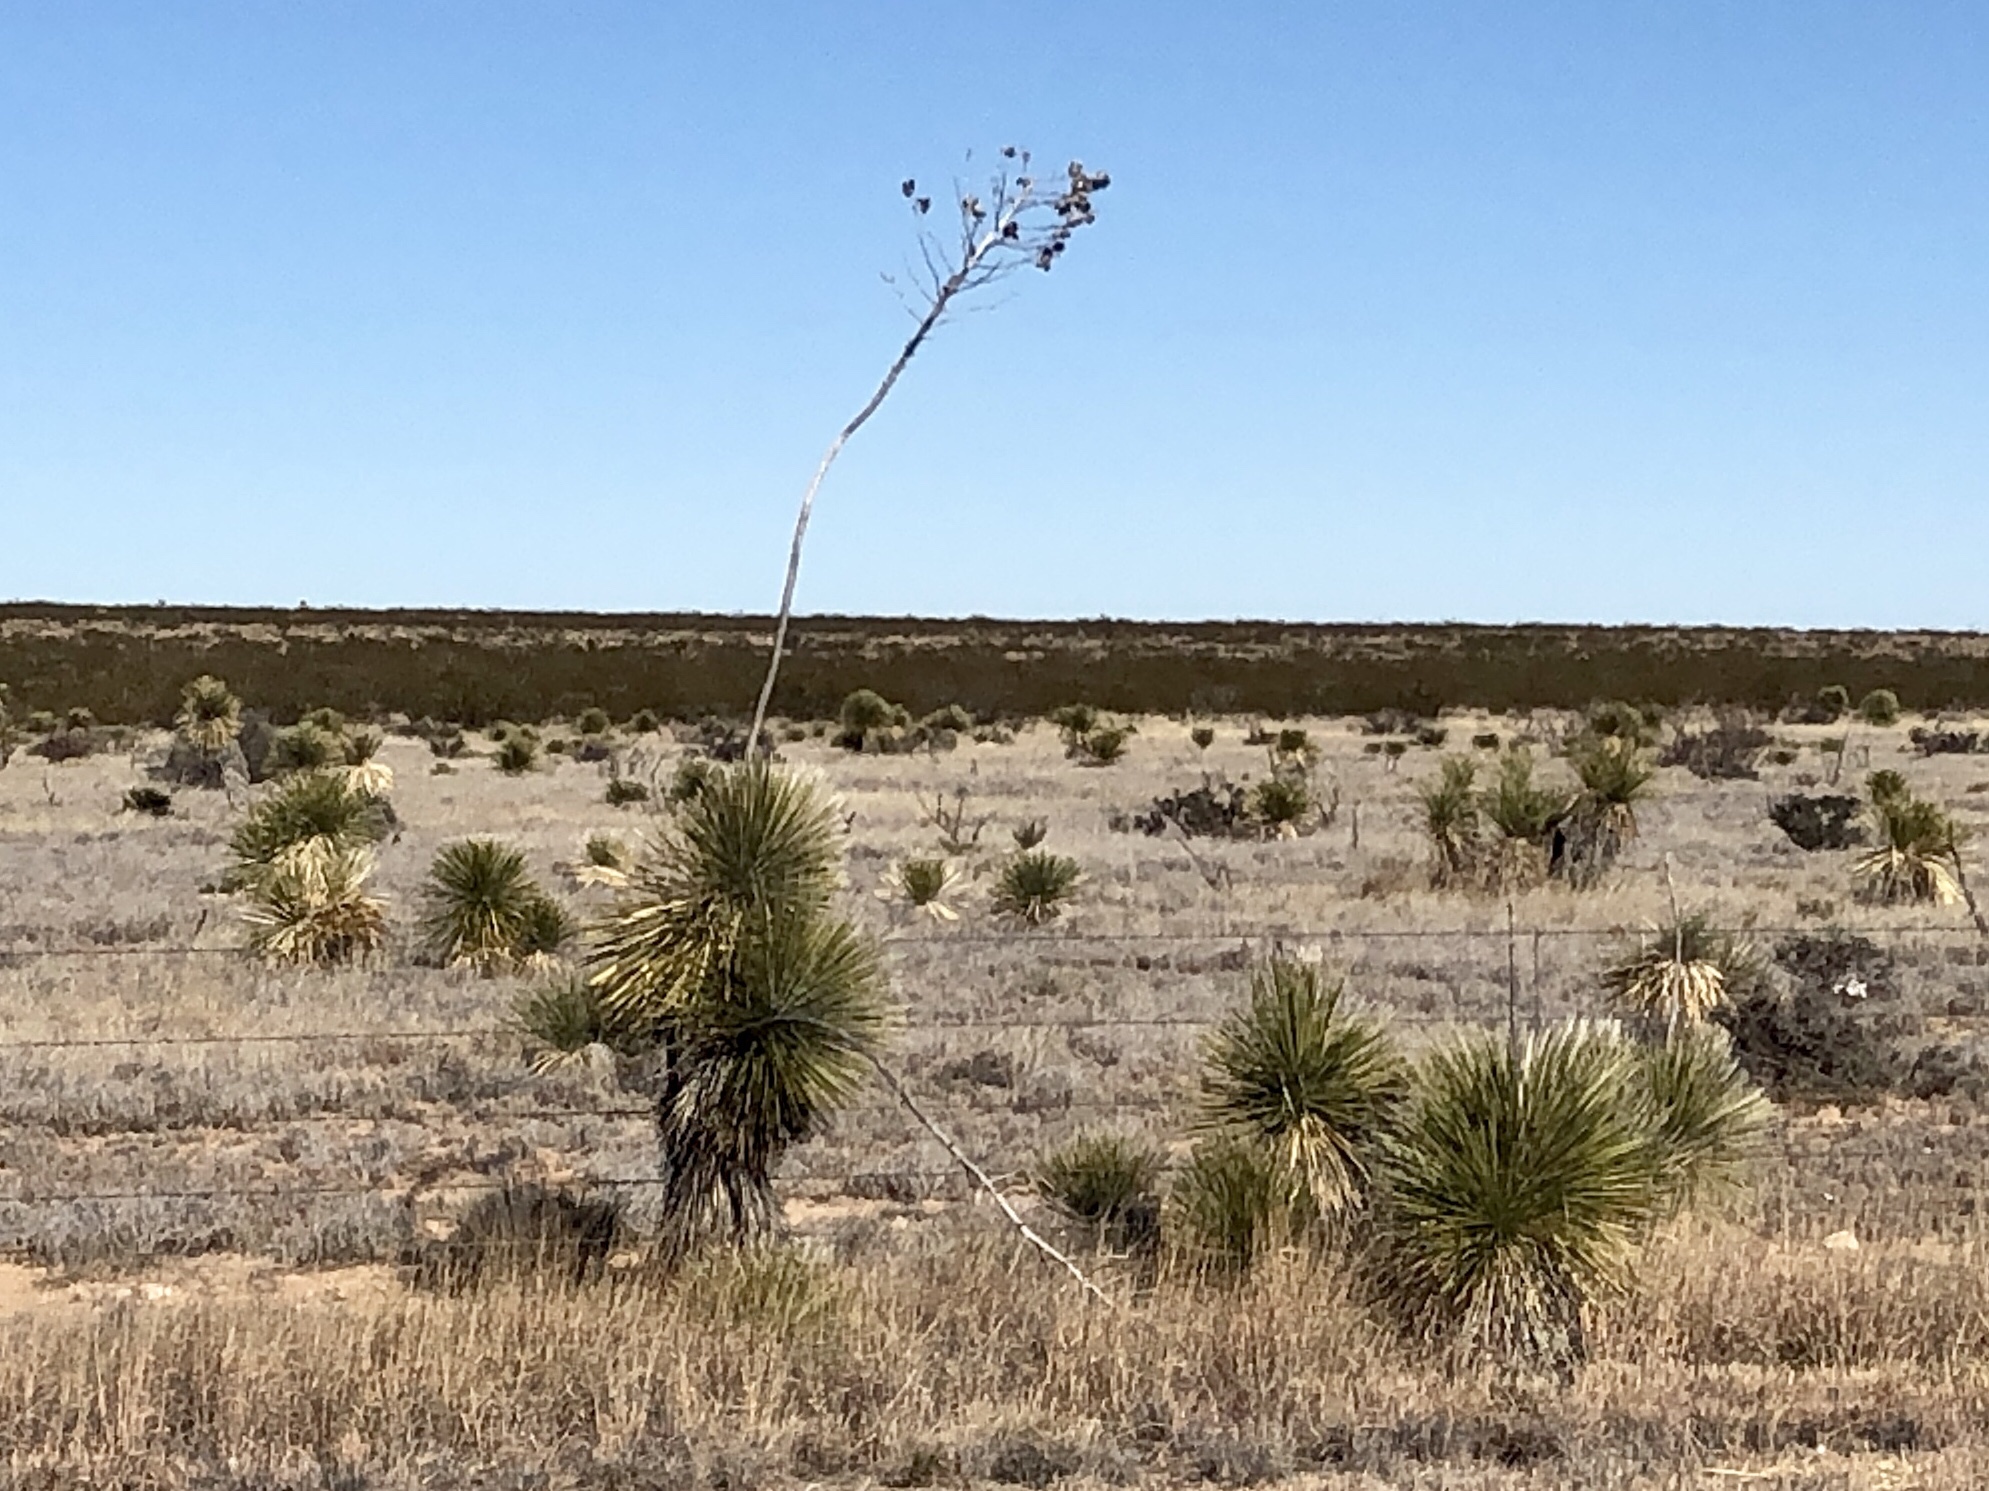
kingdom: Plantae
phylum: Tracheophyta
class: Liliopsida
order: Asparagales
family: Asparagaceae
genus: Yucca
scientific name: Yucca elata
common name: Palmella
